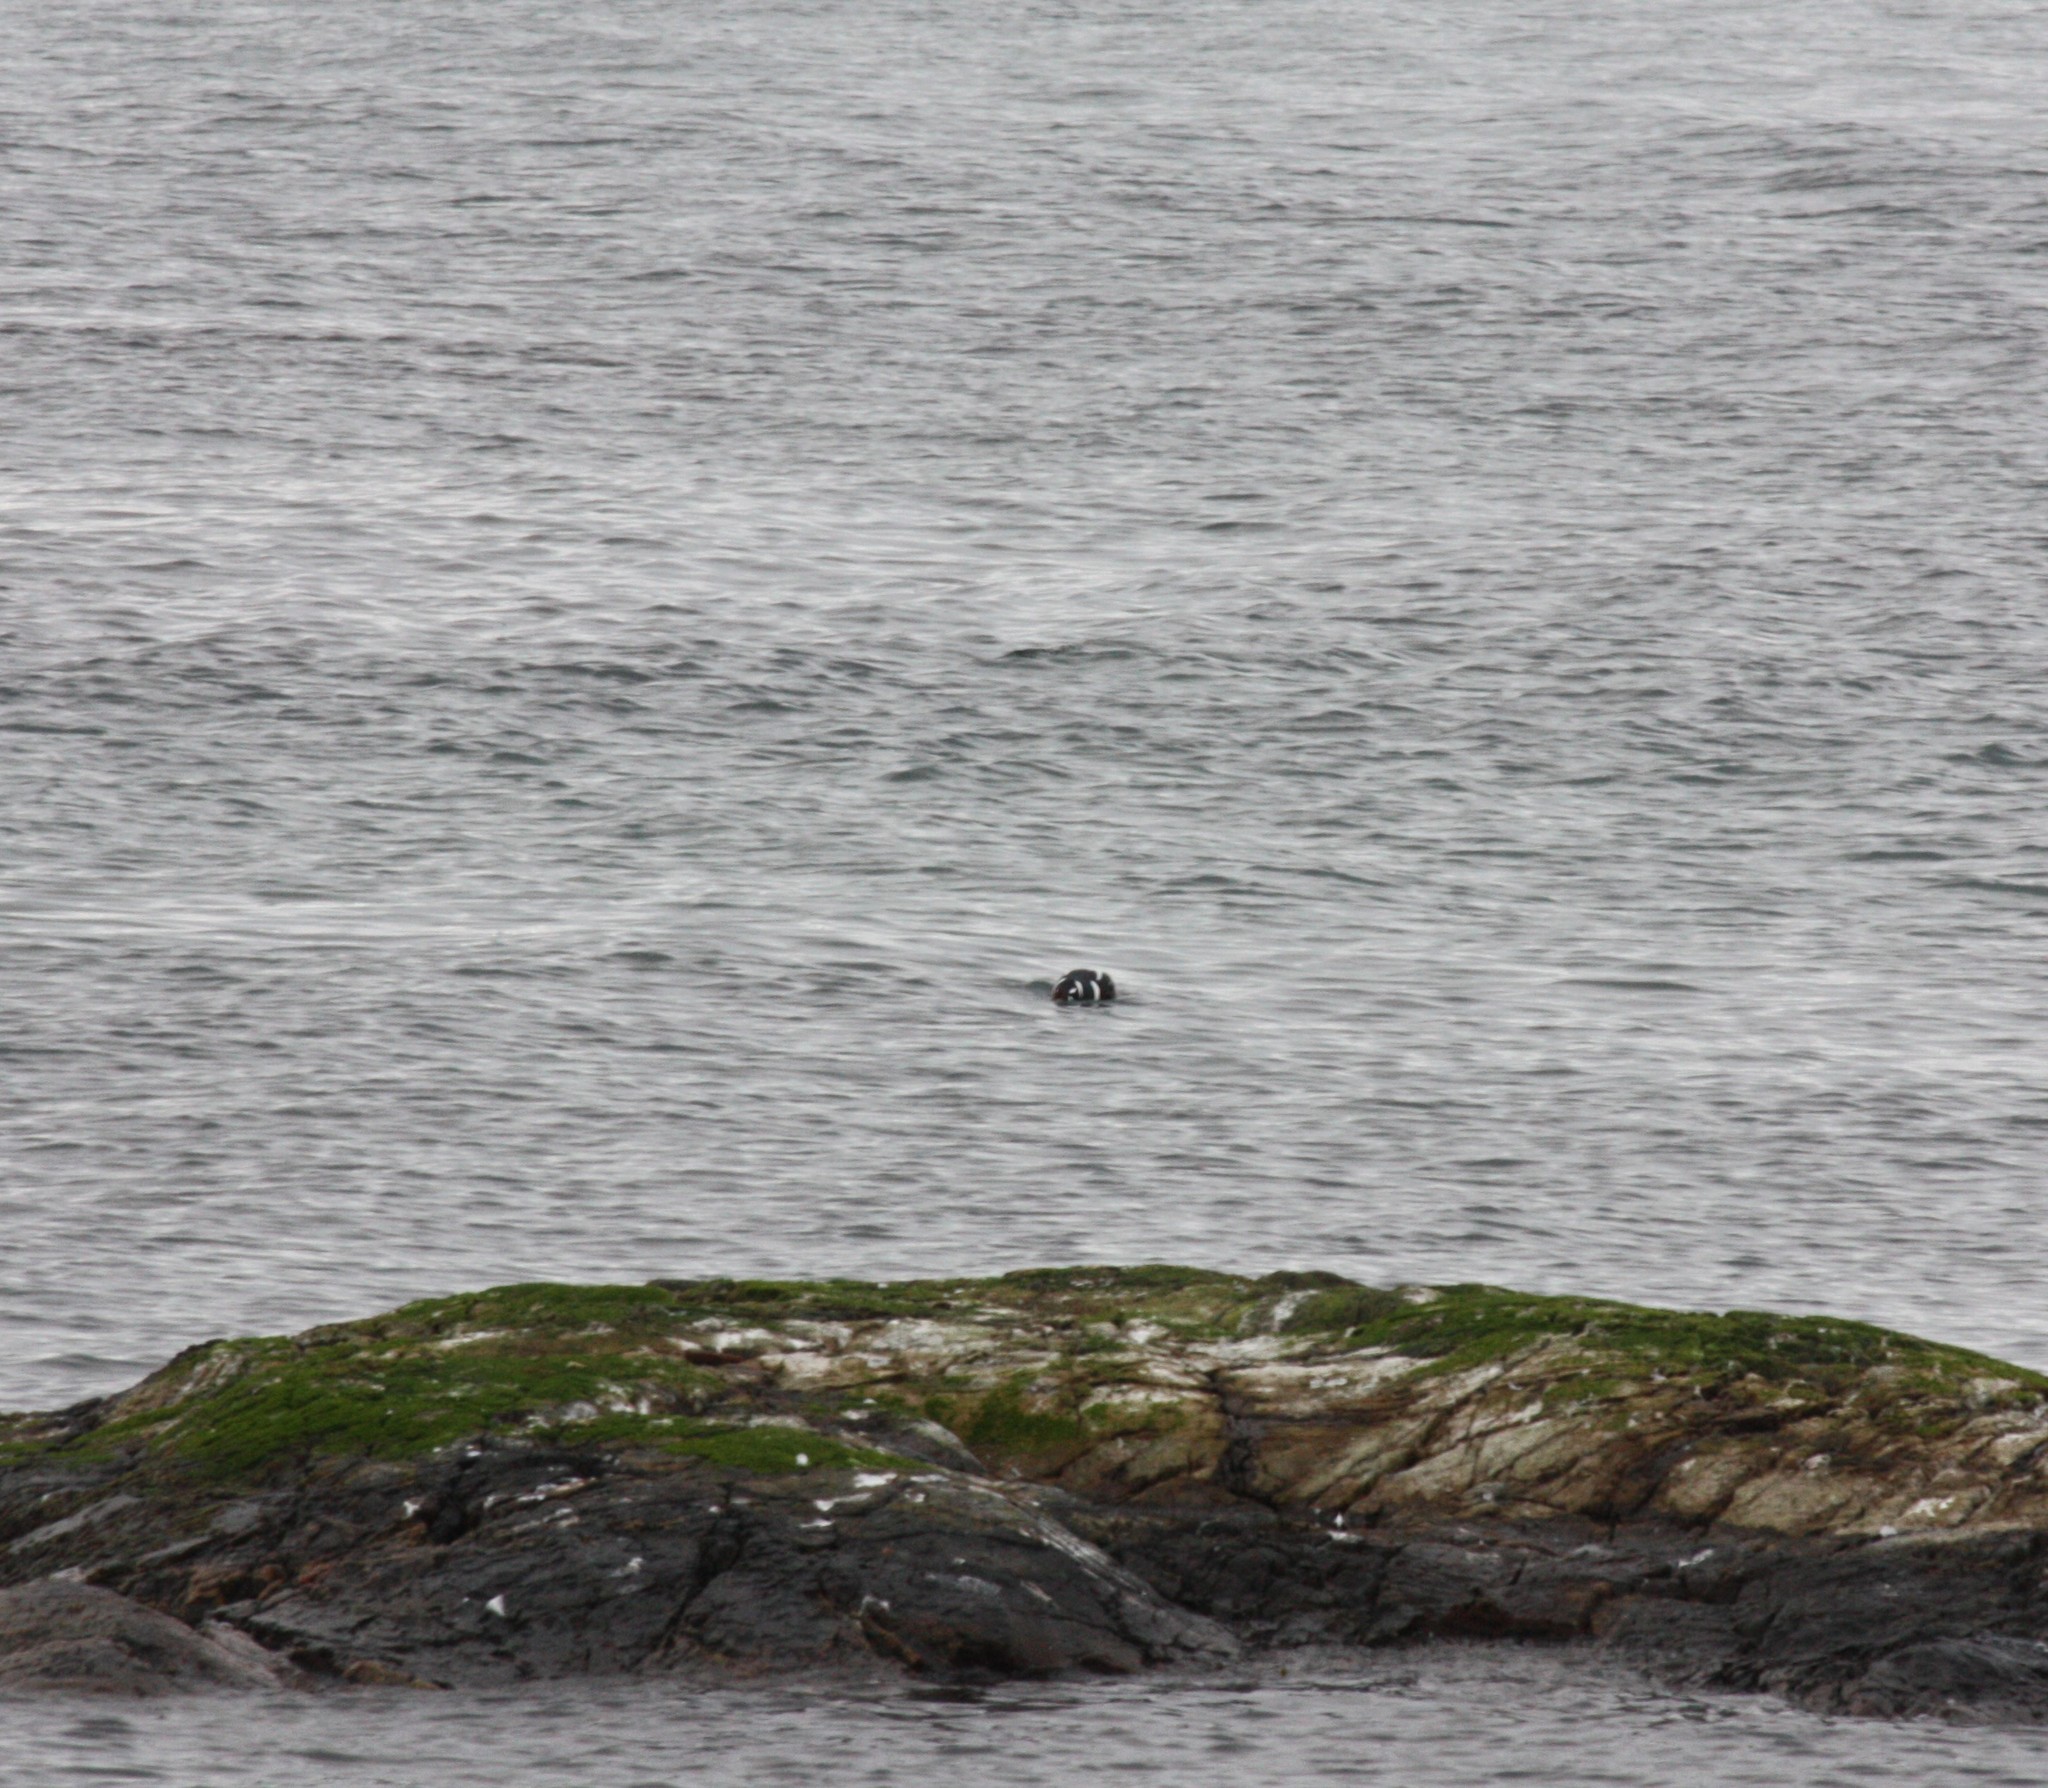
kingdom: Animalia
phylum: Chordata
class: Aves
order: Anseriformes
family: Anatidae
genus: Histrionicus
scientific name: Histrionicus histrionicus
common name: Harlequin duck
